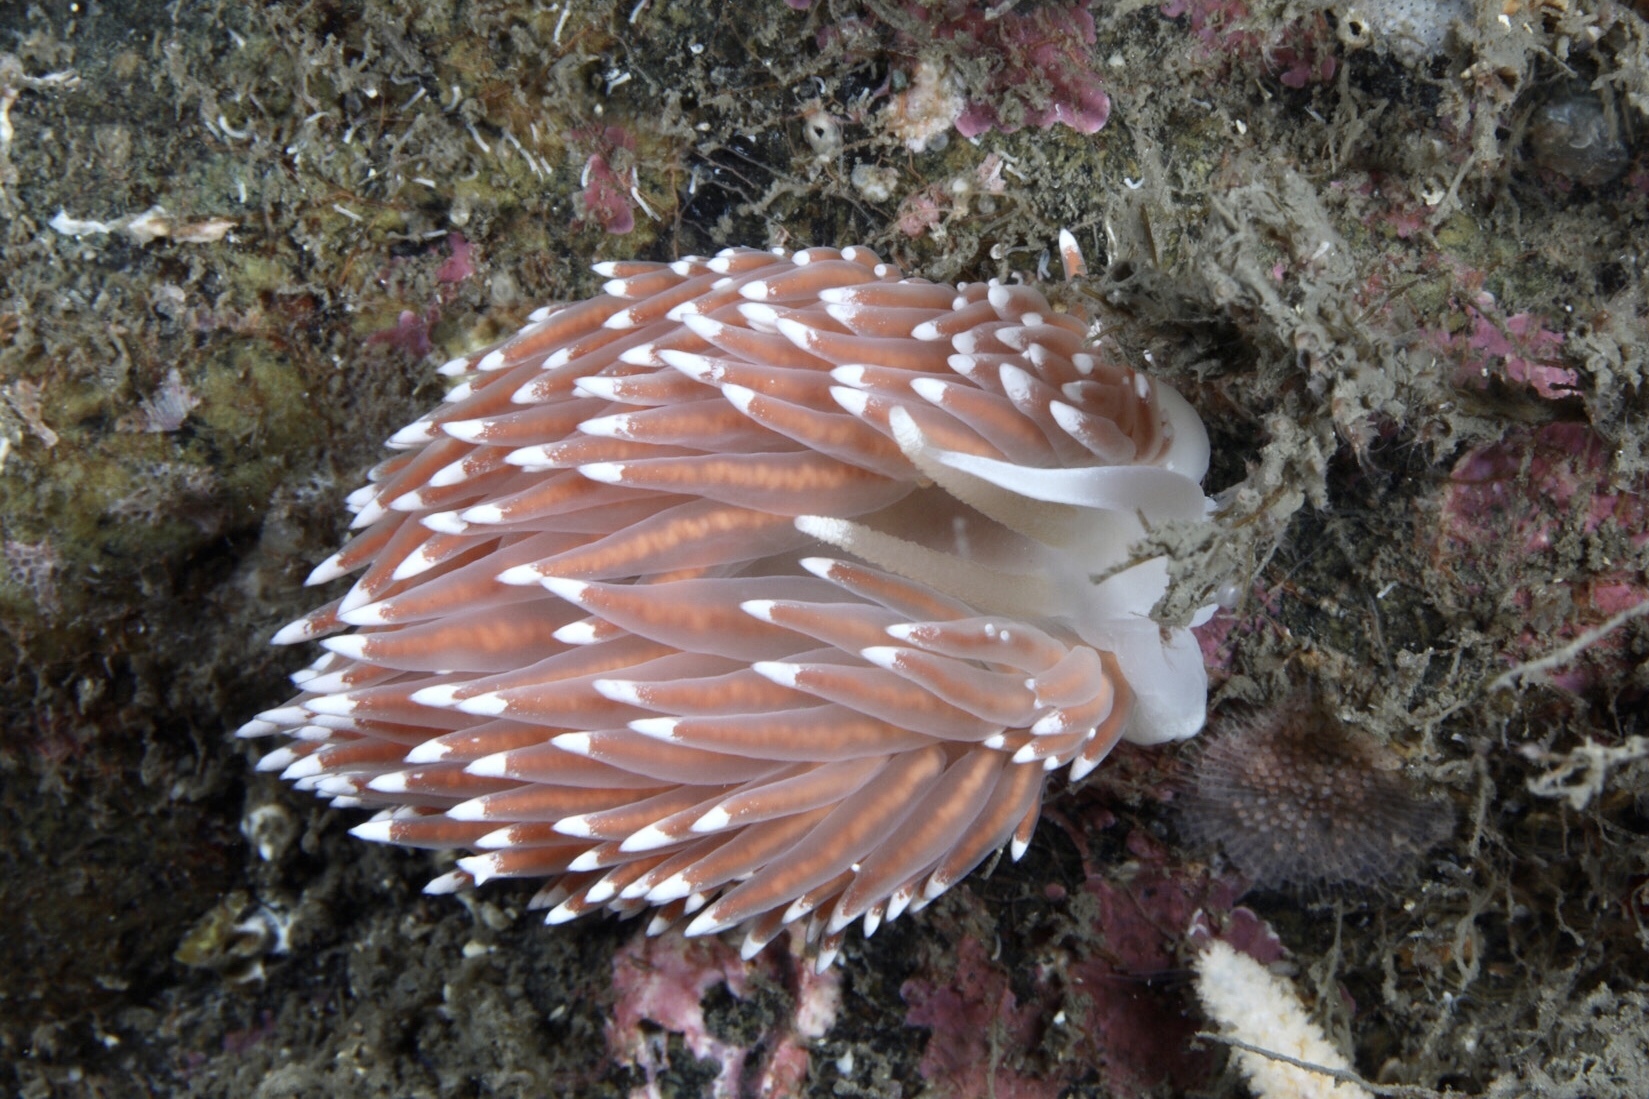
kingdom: Animalia
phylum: Mollusca
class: Gastropoda
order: Nudibranchia
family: Coryphellidae
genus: Coryphella
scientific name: Coryphella nobilis
